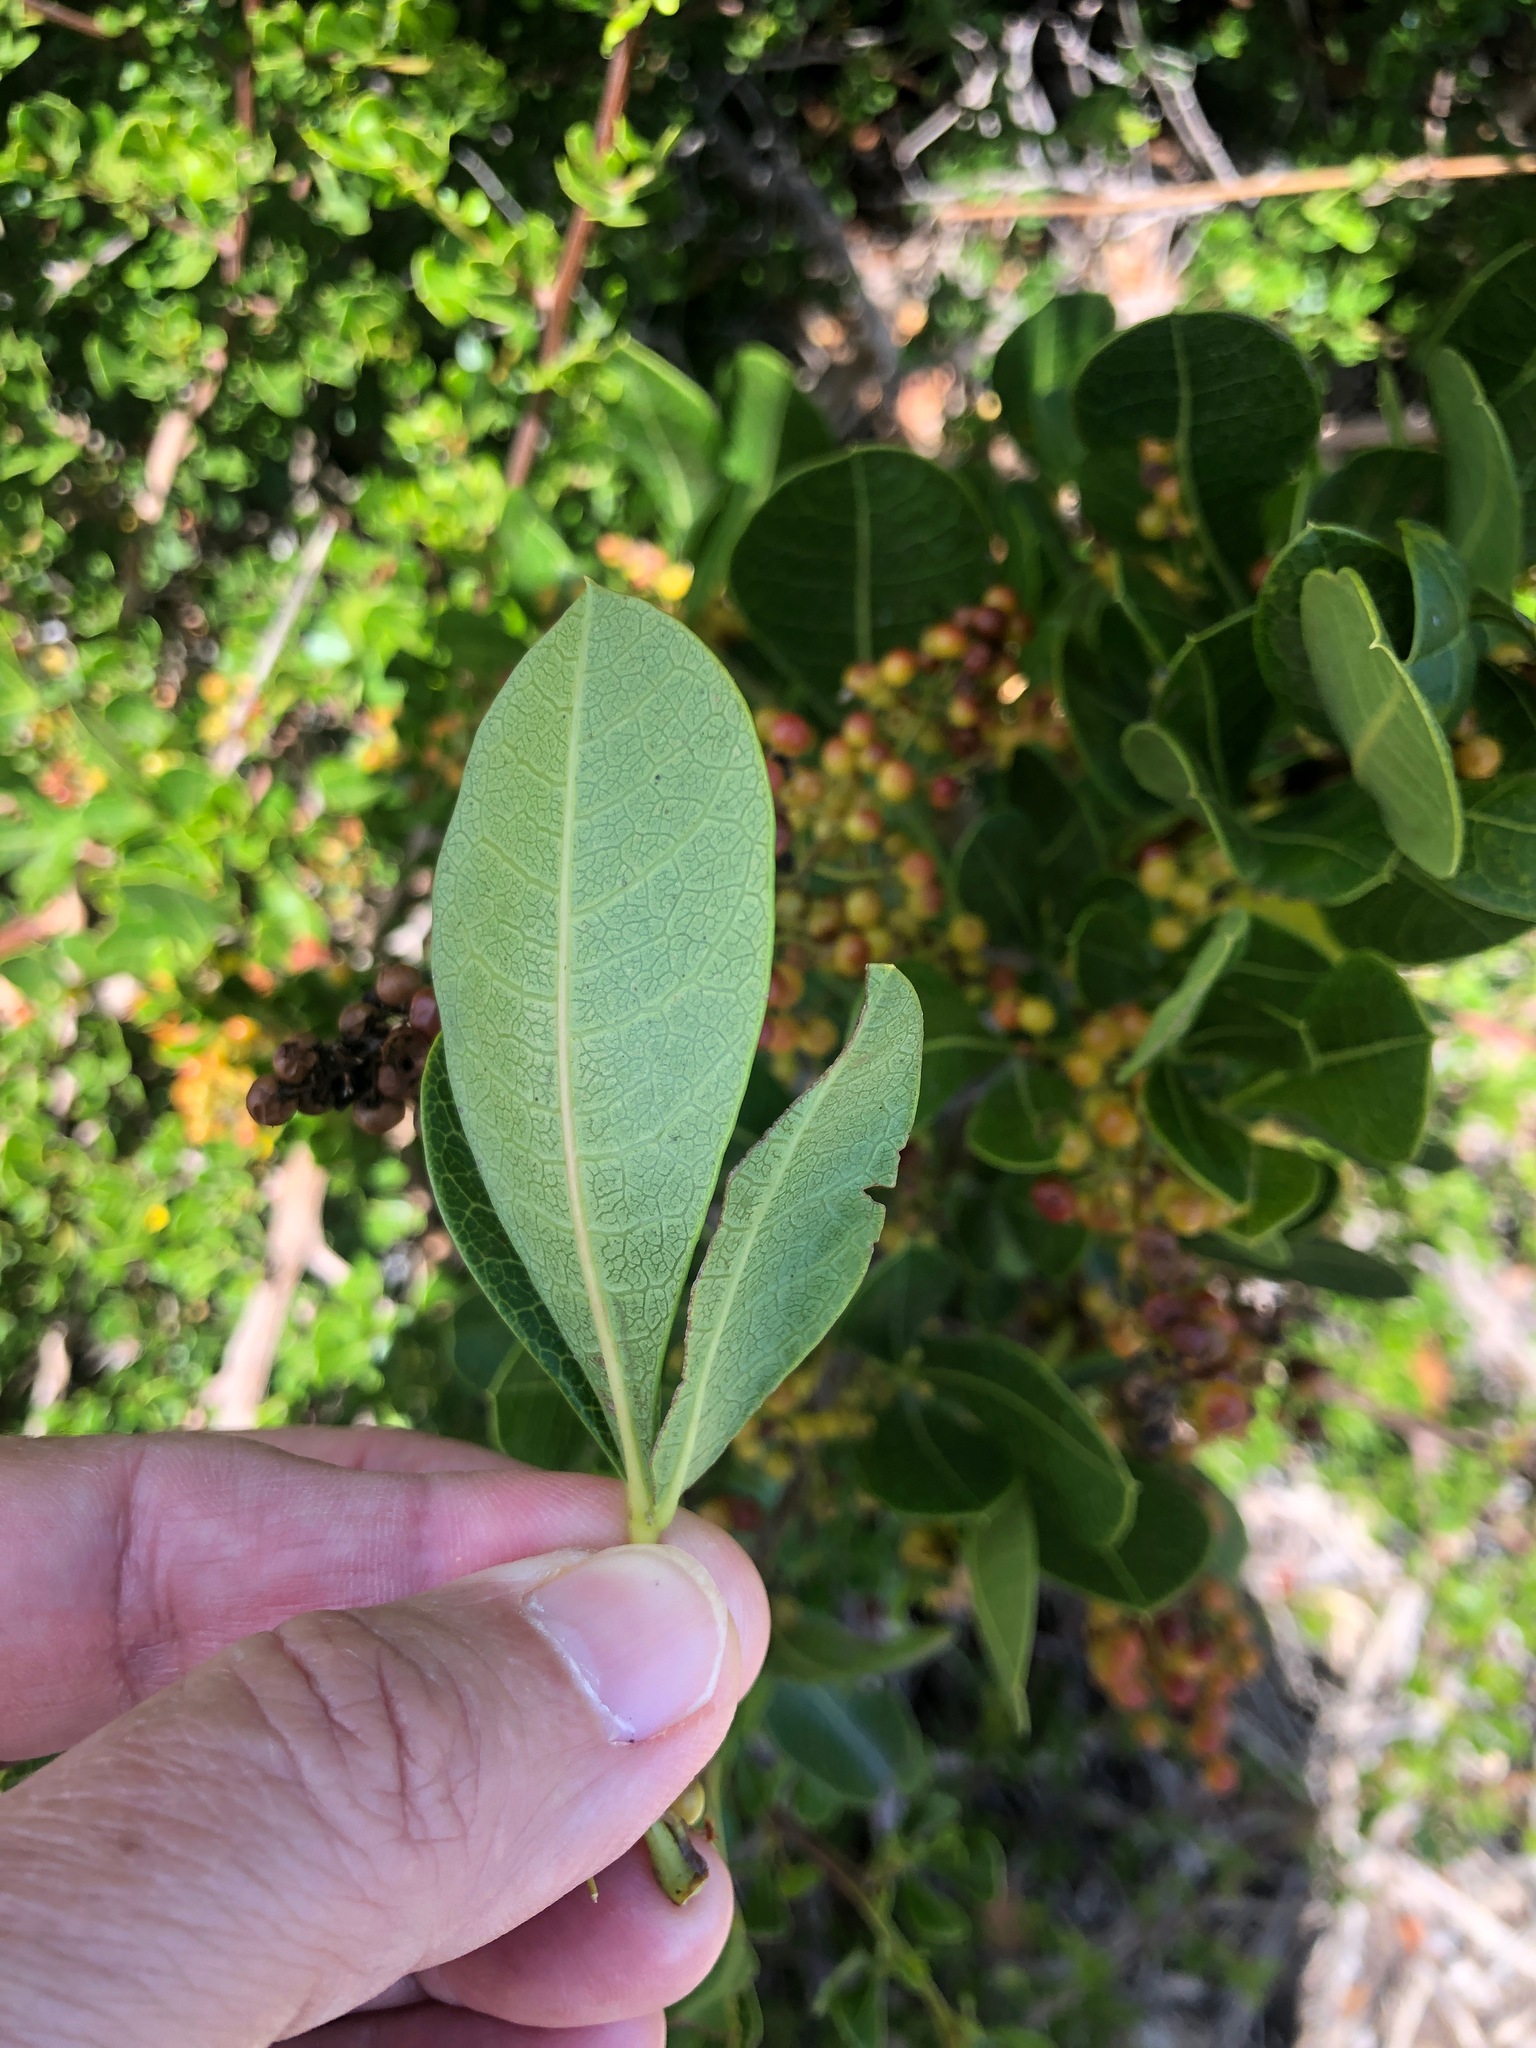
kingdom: Plantae
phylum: Tracheophyta
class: Magnoliopsida
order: Sapindales
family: Anacardiaceae
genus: Searsia
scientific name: Searsia laevigata
